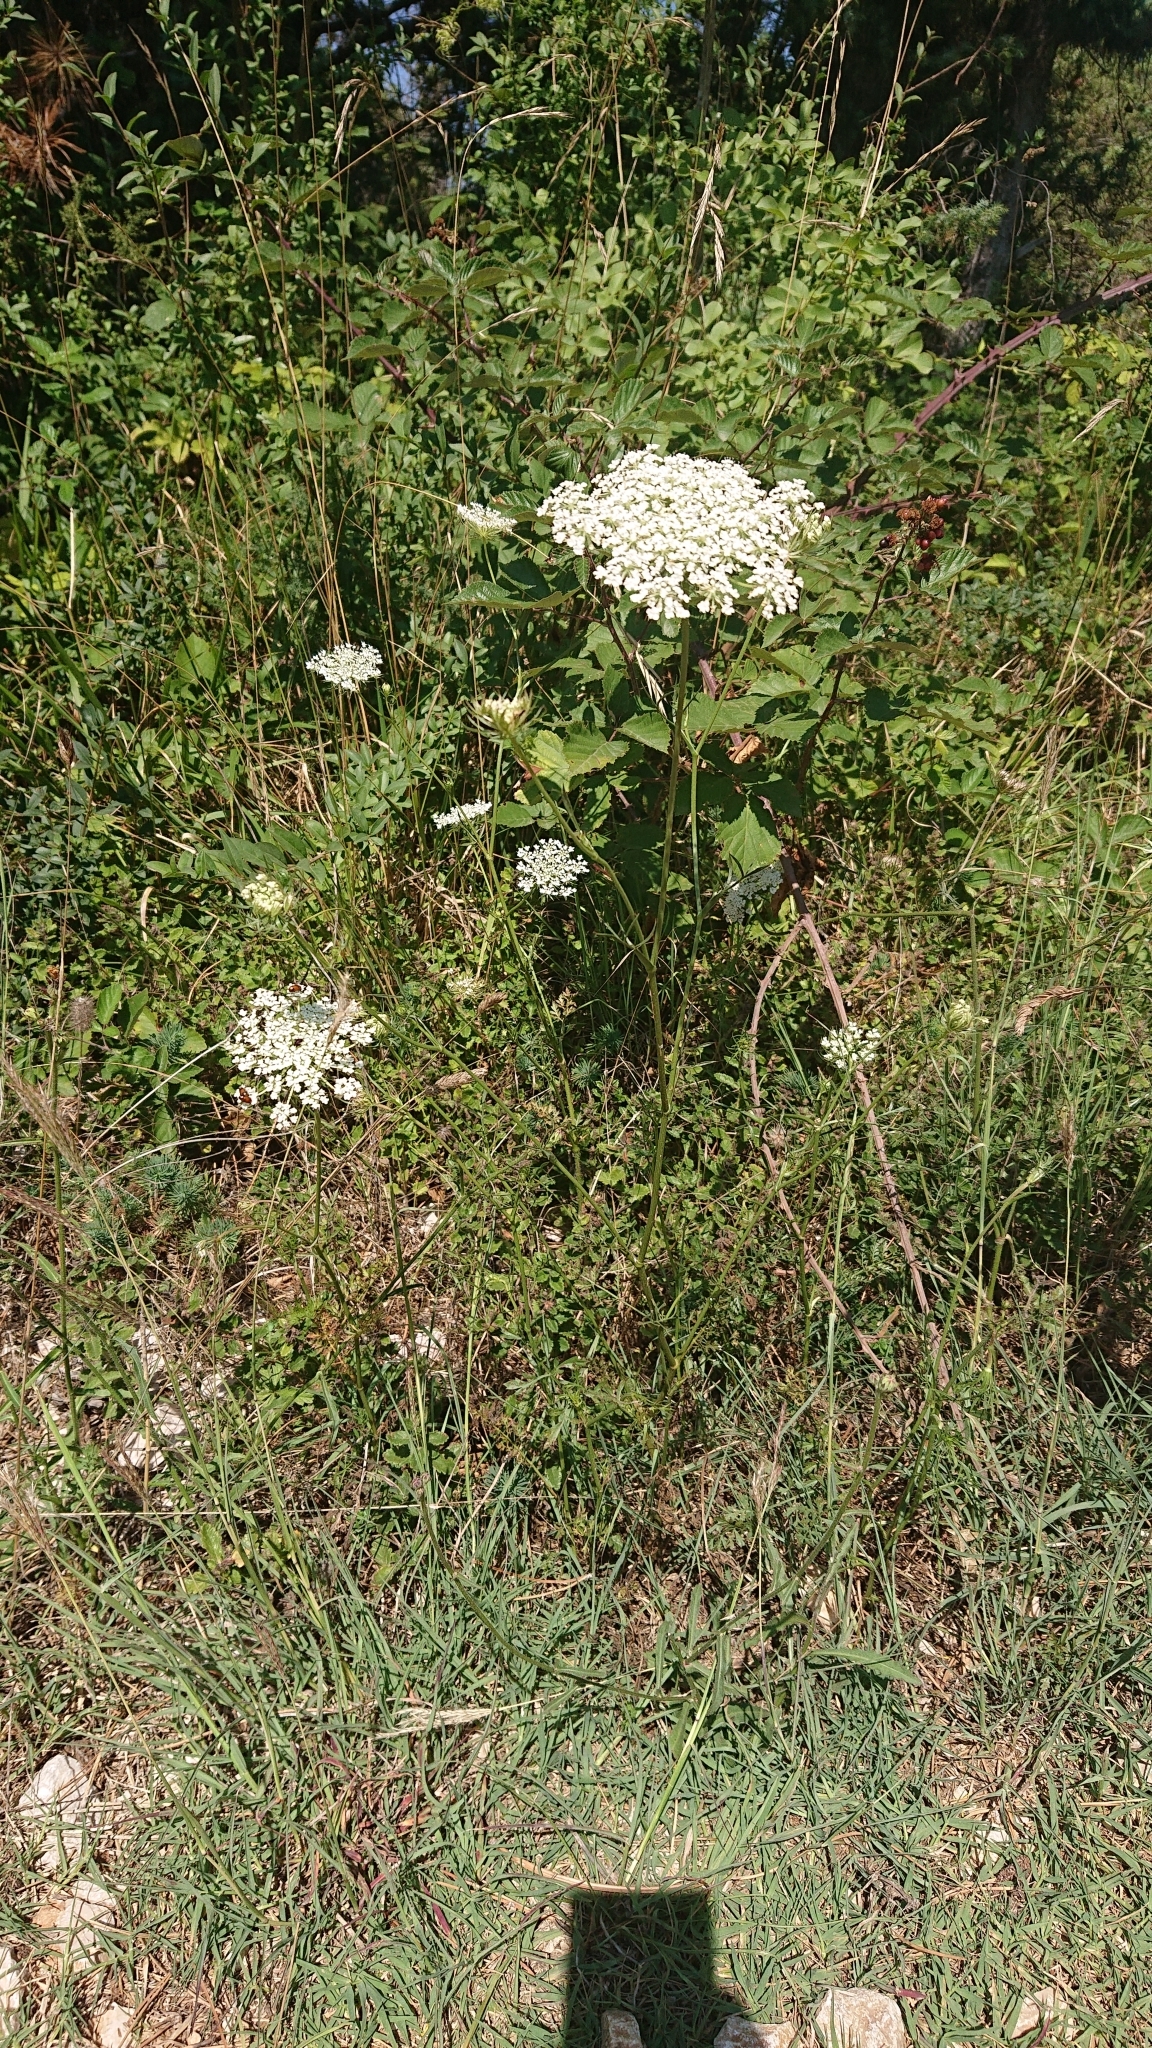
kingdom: Plantae
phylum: Tracheophyta
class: Magnoliopsida
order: Apiales
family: Apiaceae
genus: Daucus
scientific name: Daucus carota
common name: Wild carrot
